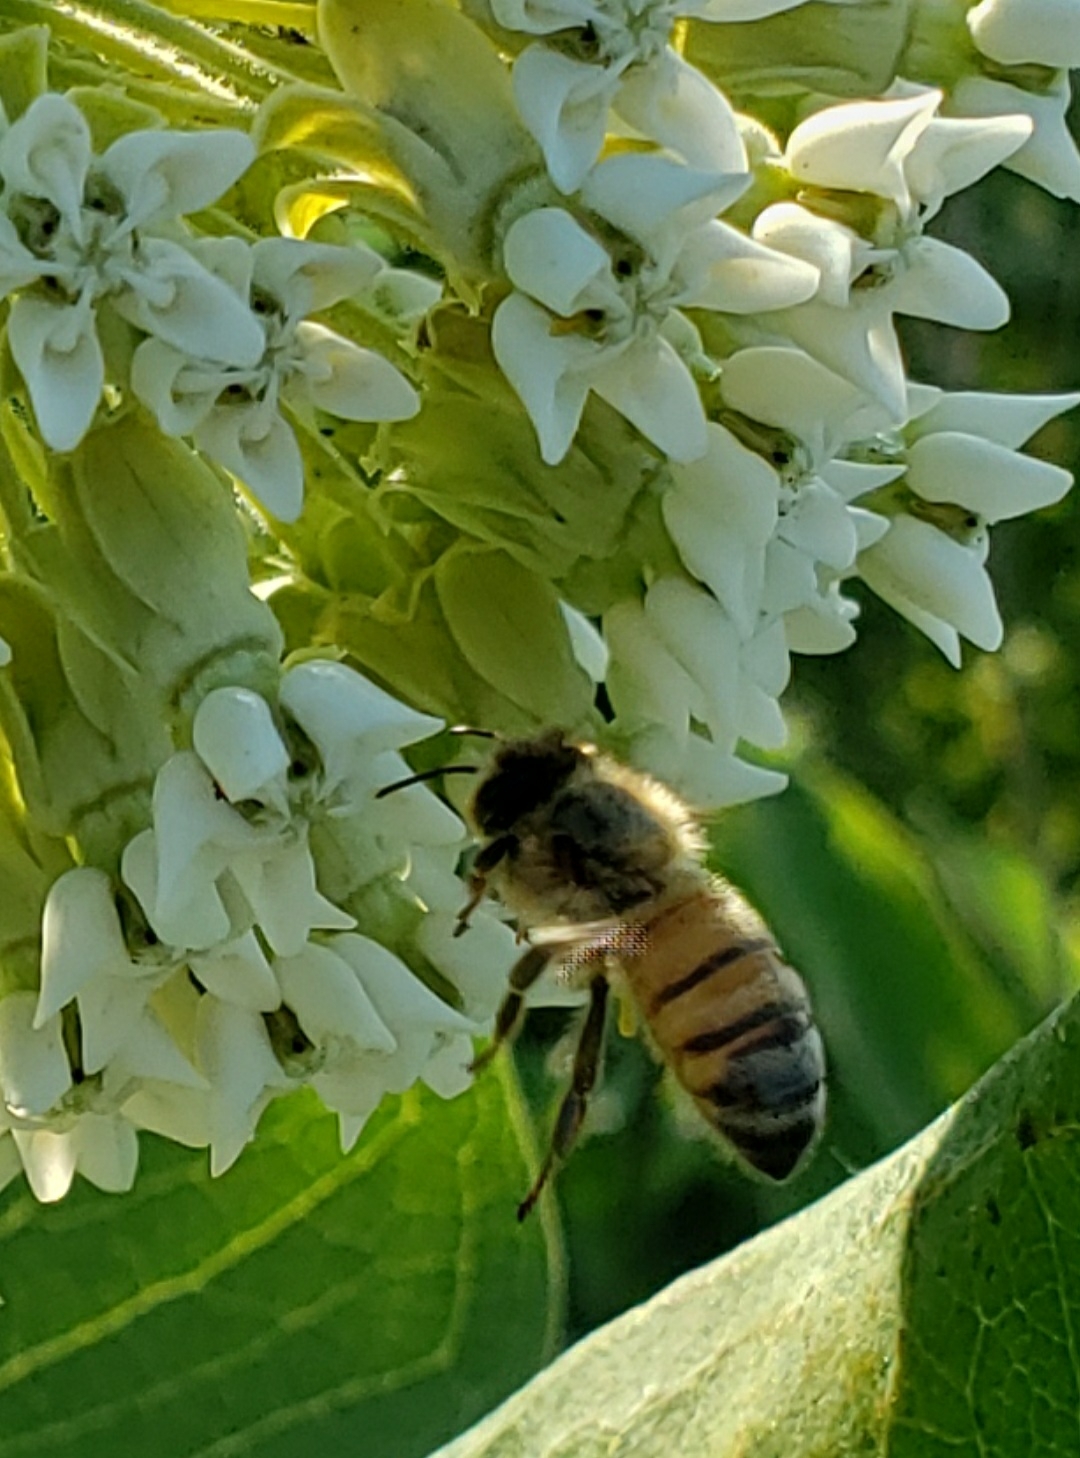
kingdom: Animalia
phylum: Arthropoda
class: Insecta
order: Hymenoptera
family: Apidae
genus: Apis
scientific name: Apis mellifera
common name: Honey bee
